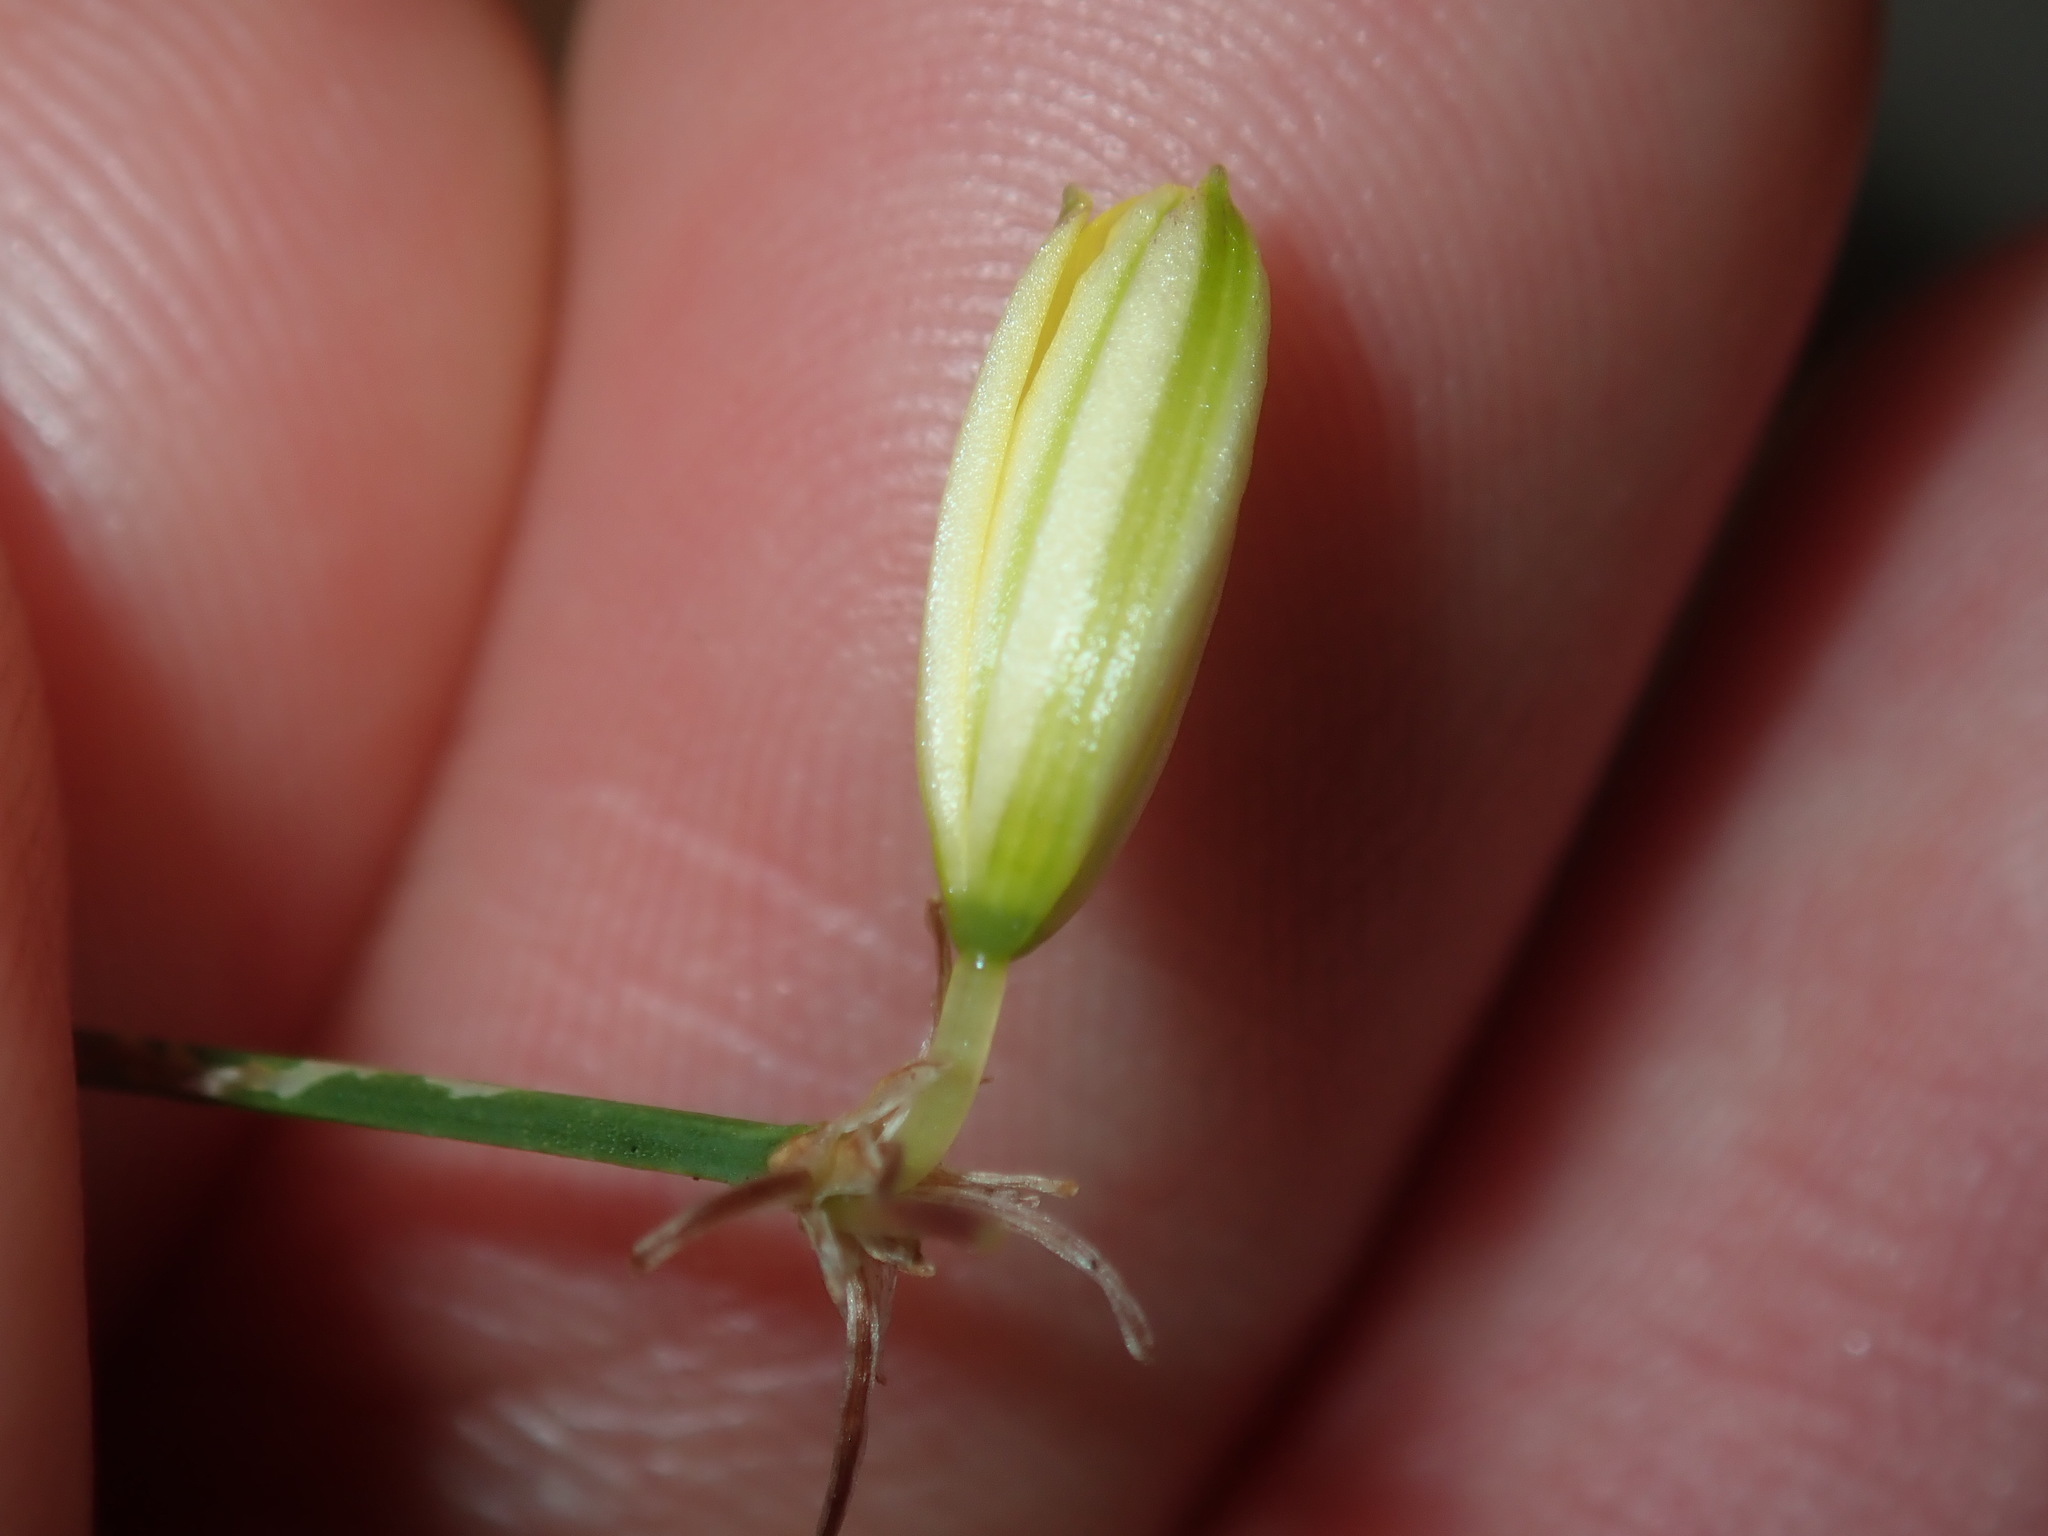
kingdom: Plantae
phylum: Tracheophyta
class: Liliopsida
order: Asparagales
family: Asphodelaceae
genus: Tricoryne
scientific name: Tricoryne elatior
